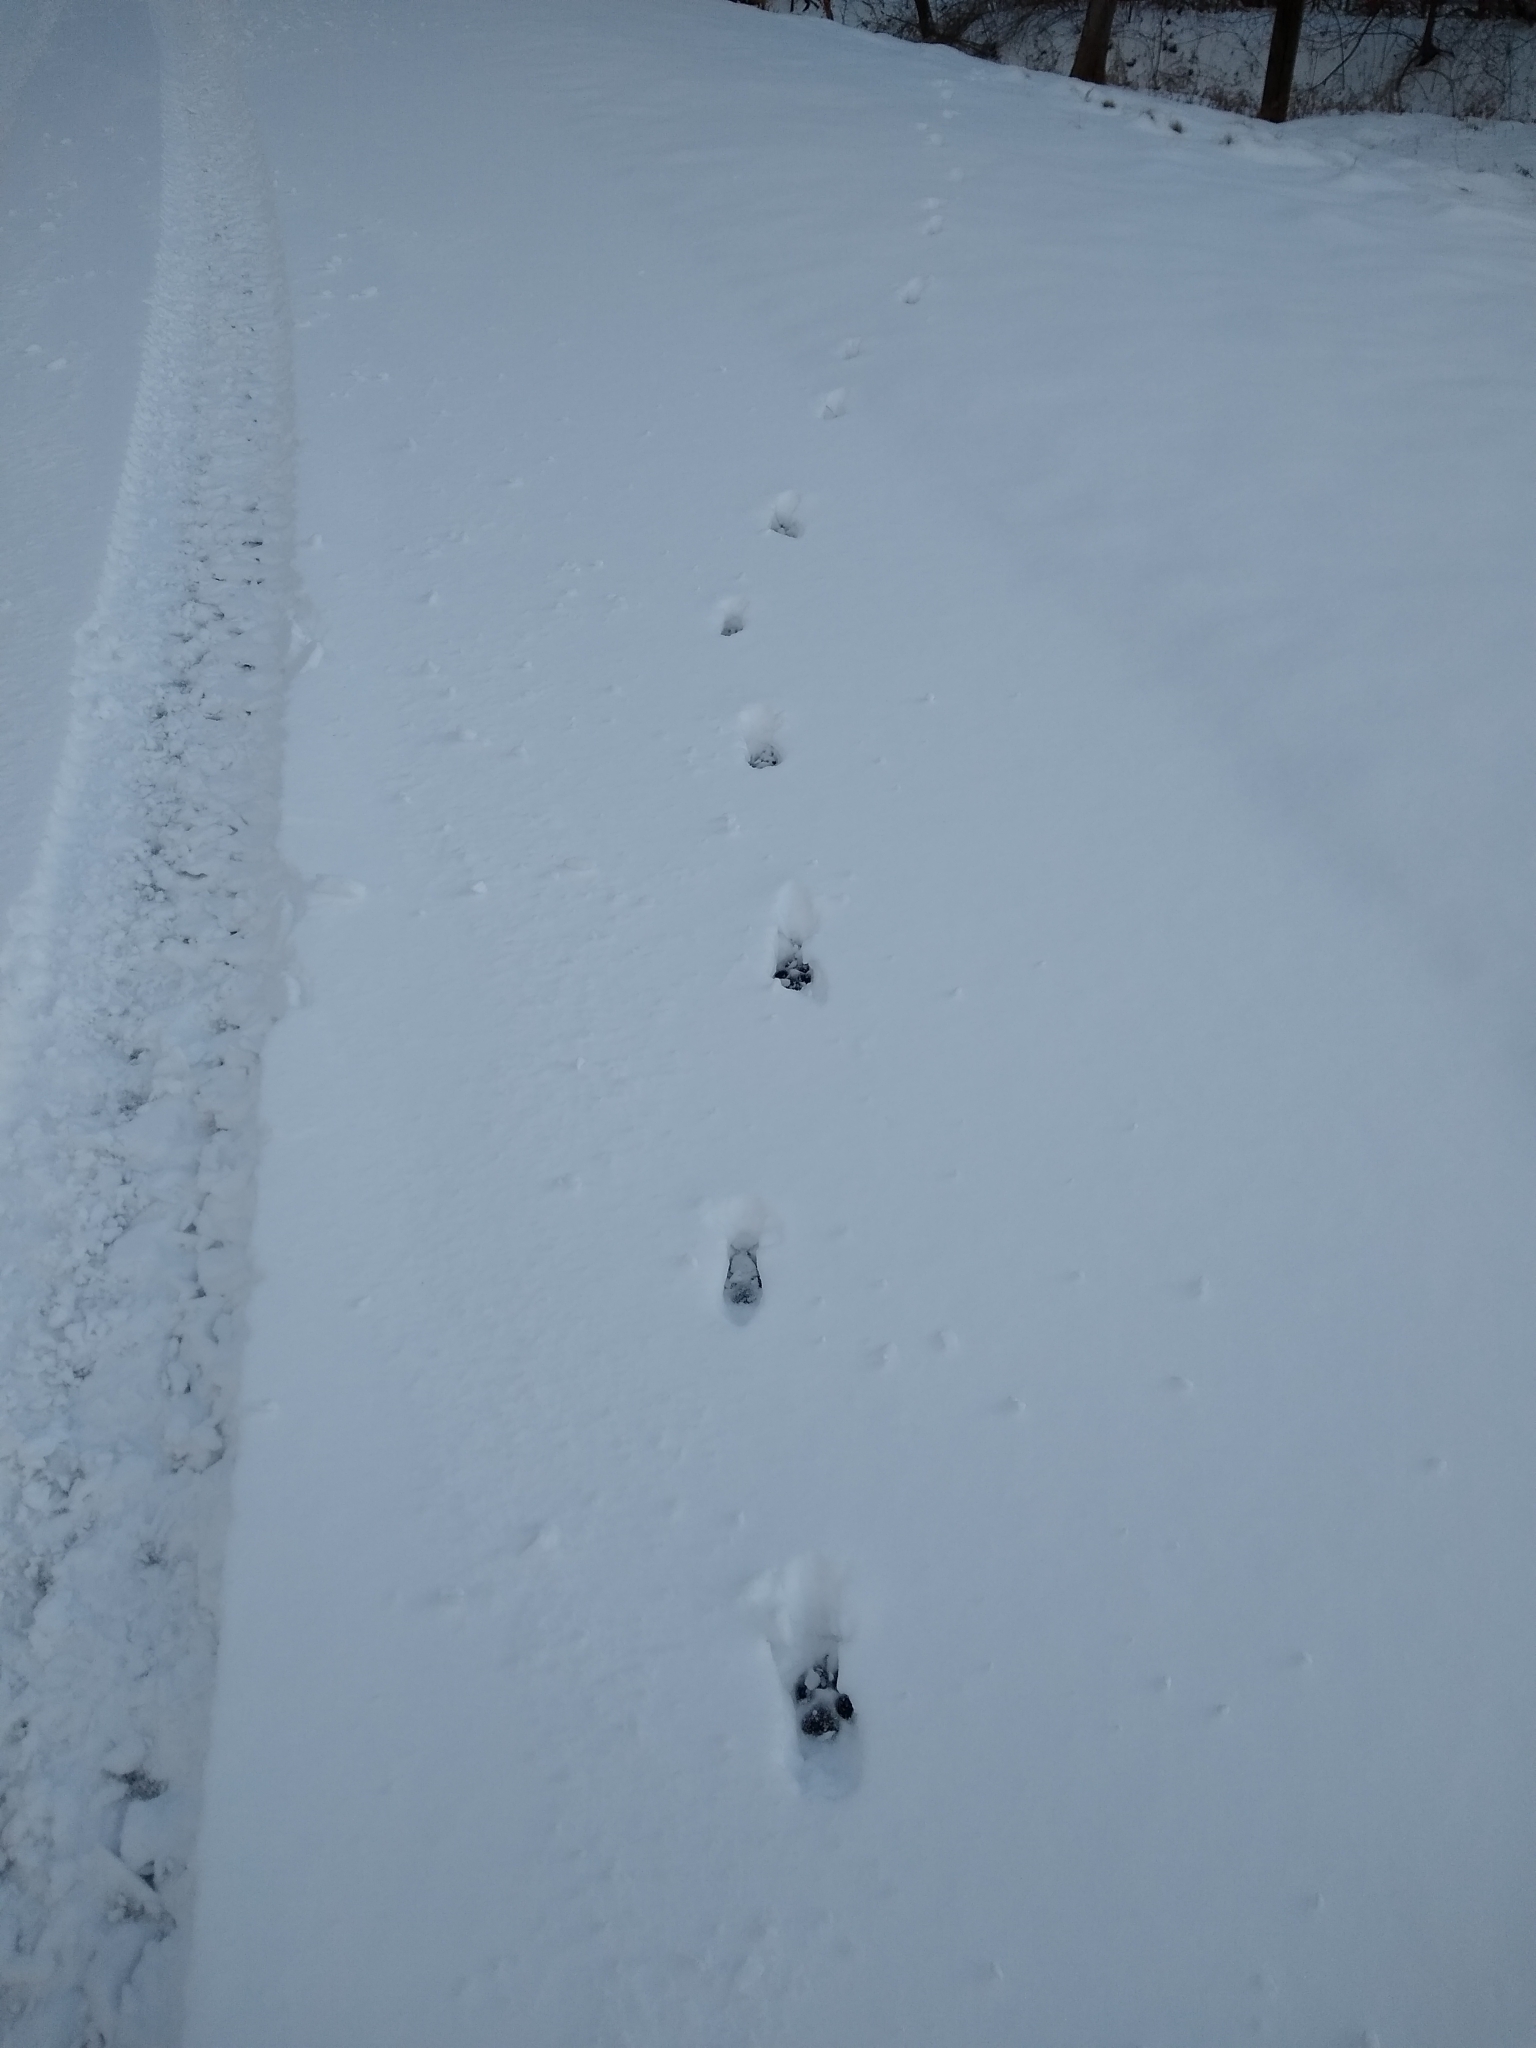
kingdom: Animalia
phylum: Chordata
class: Mammalia
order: Carnivora
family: Canidae
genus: Canis
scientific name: Canis latrans
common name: Coyote
